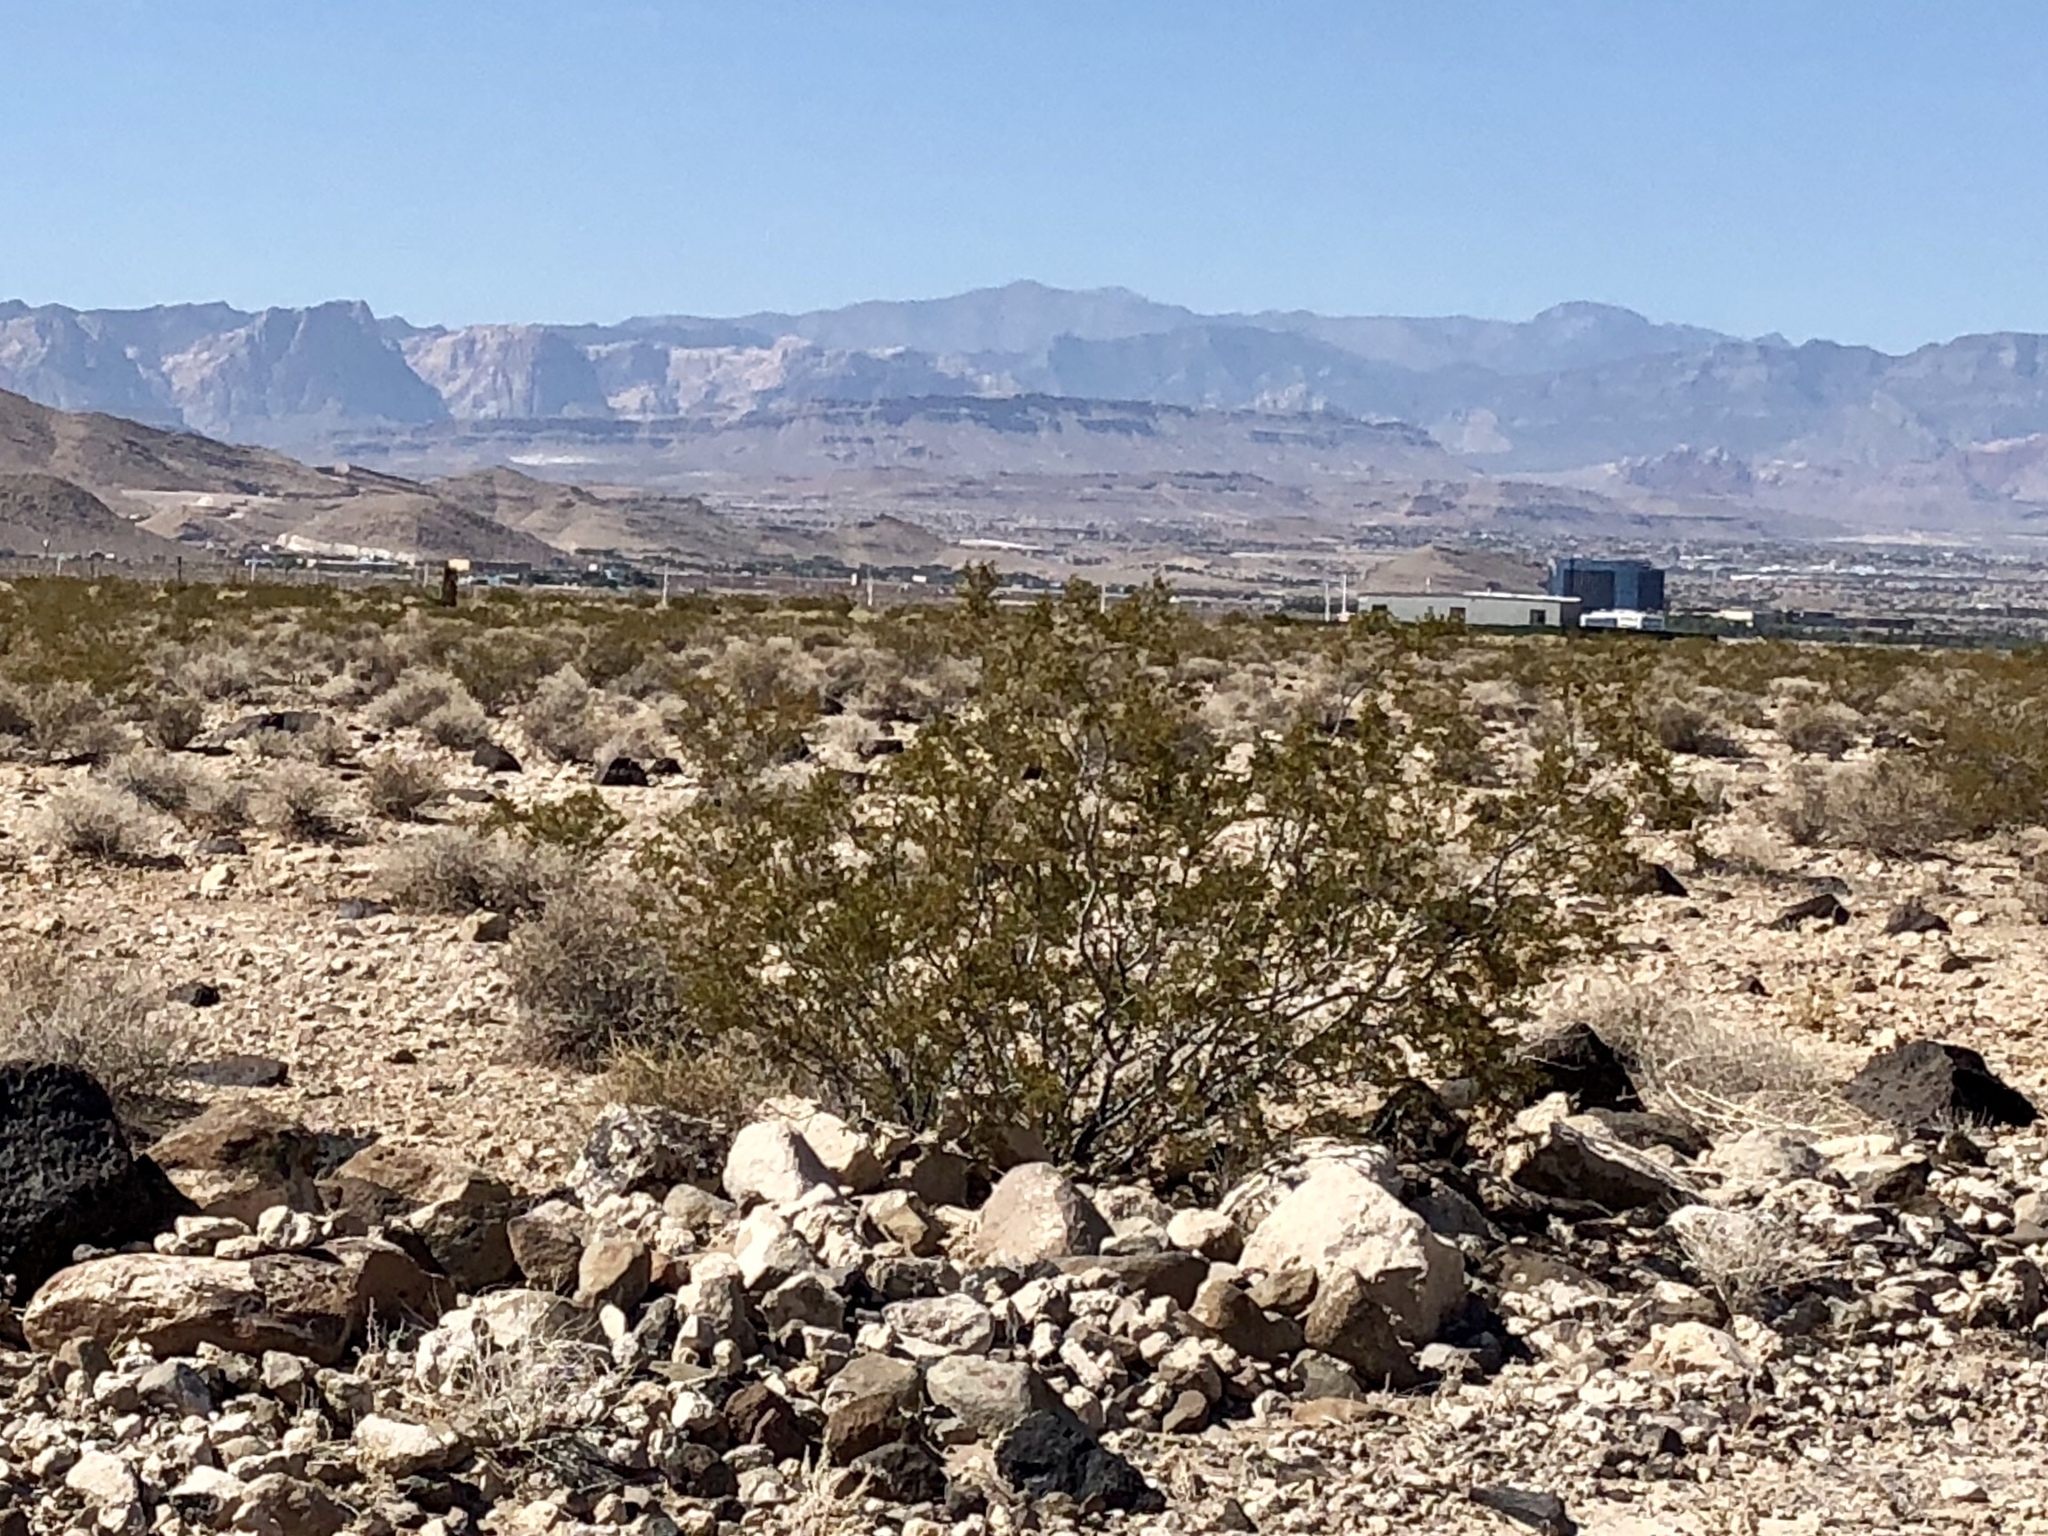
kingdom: Plantae
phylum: Tracheophyta
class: Magnoliopsida
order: Zygophyllales
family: Zygophyllaceae
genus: Larrea
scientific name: Larrea tridentata
